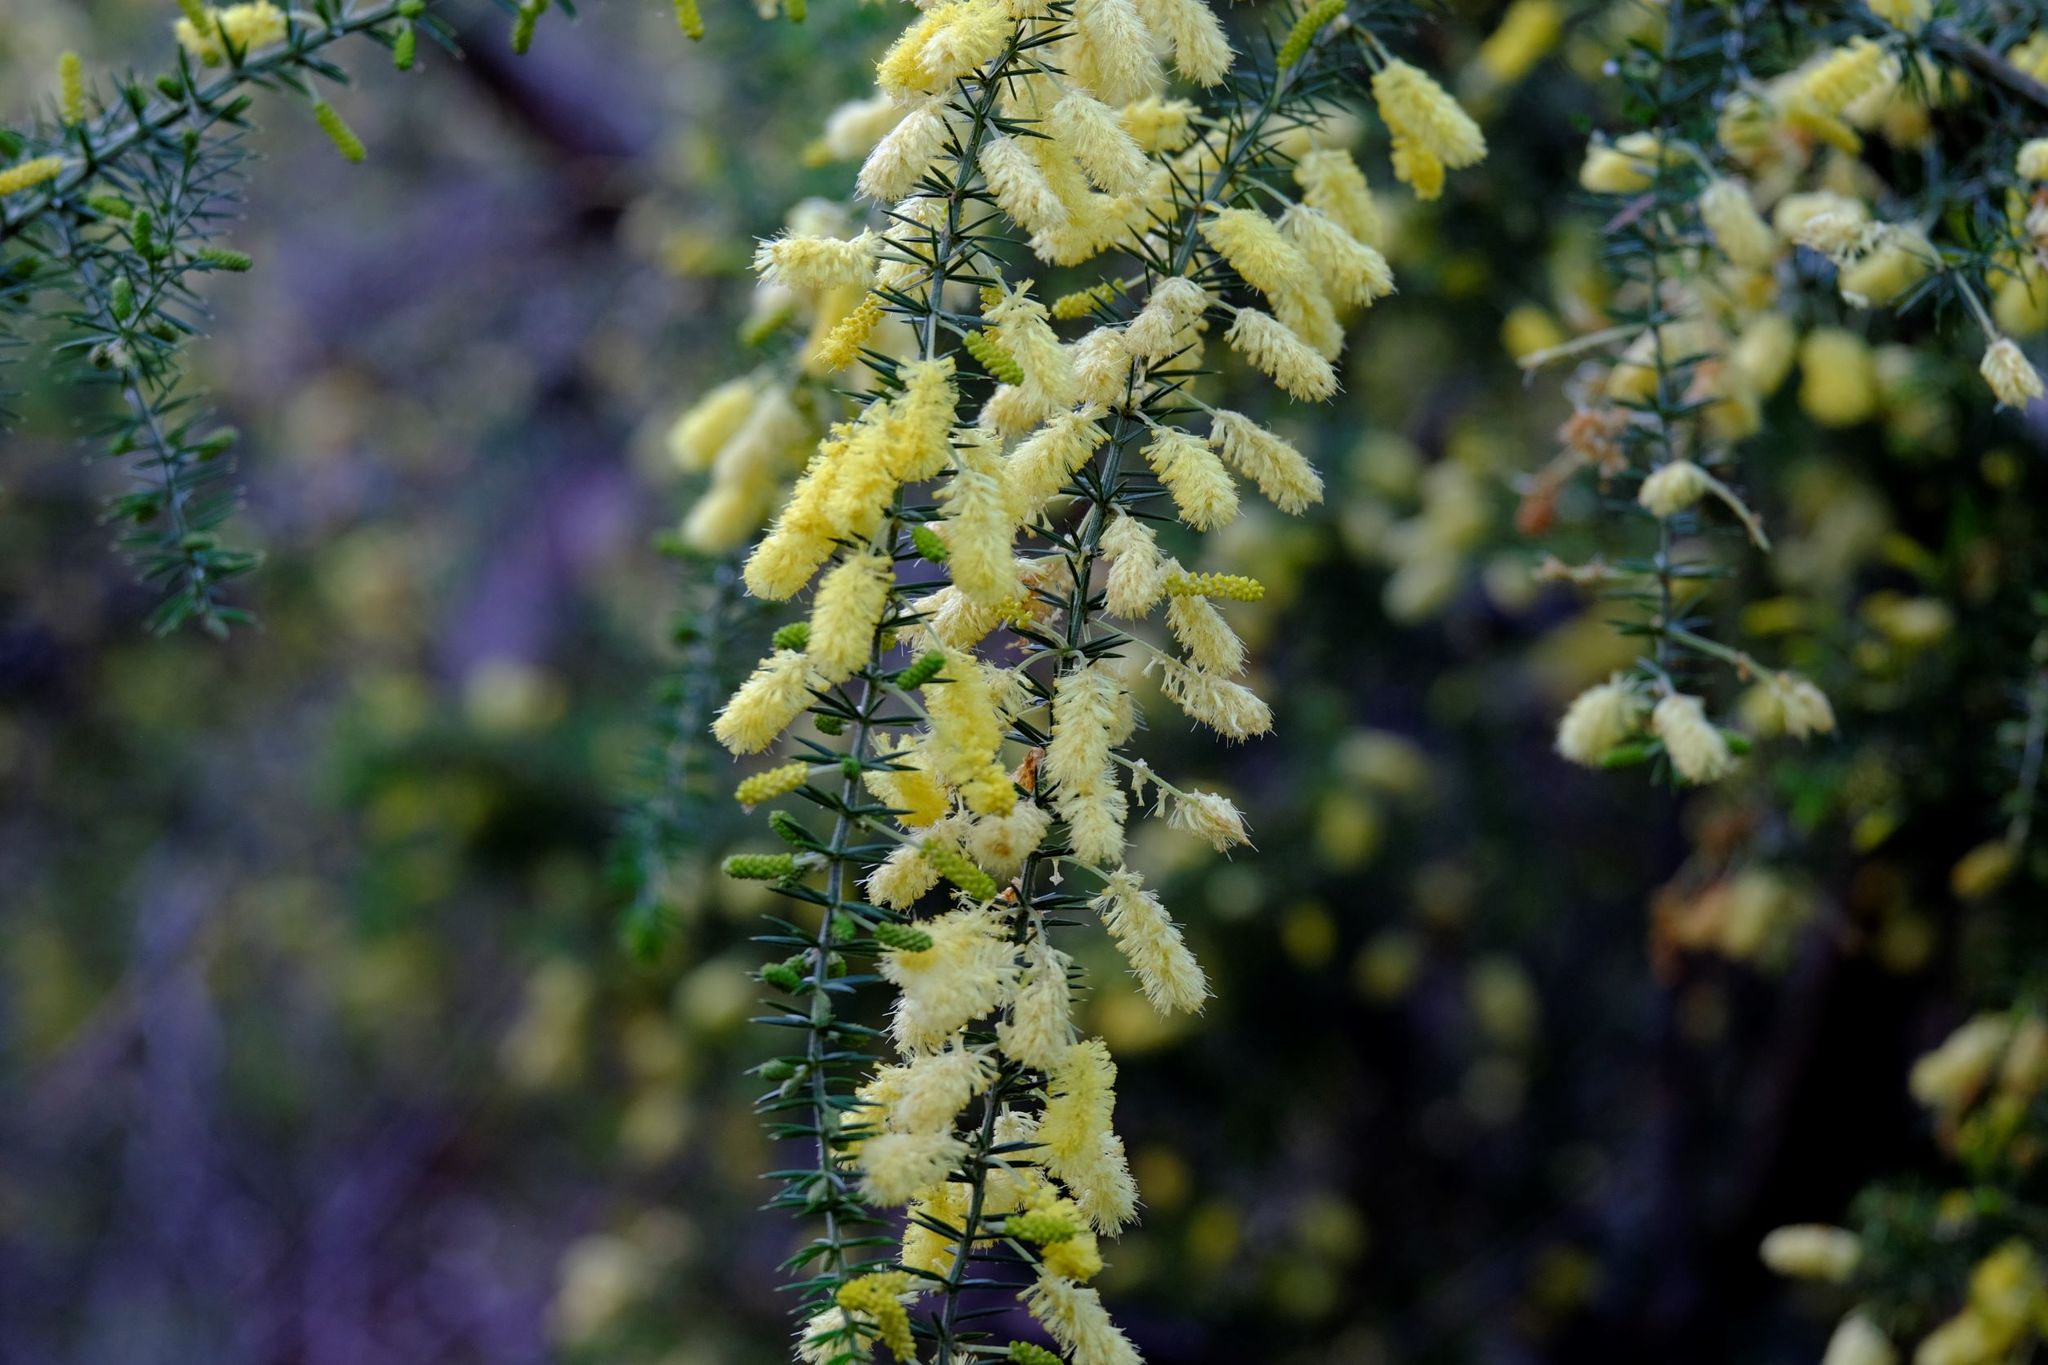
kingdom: Plantae
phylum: Tracheophyta
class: Magnoliopsida
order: Fabales
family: Fabaceae
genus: Acacia
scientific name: Acacia verticillata
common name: Prickly moses
